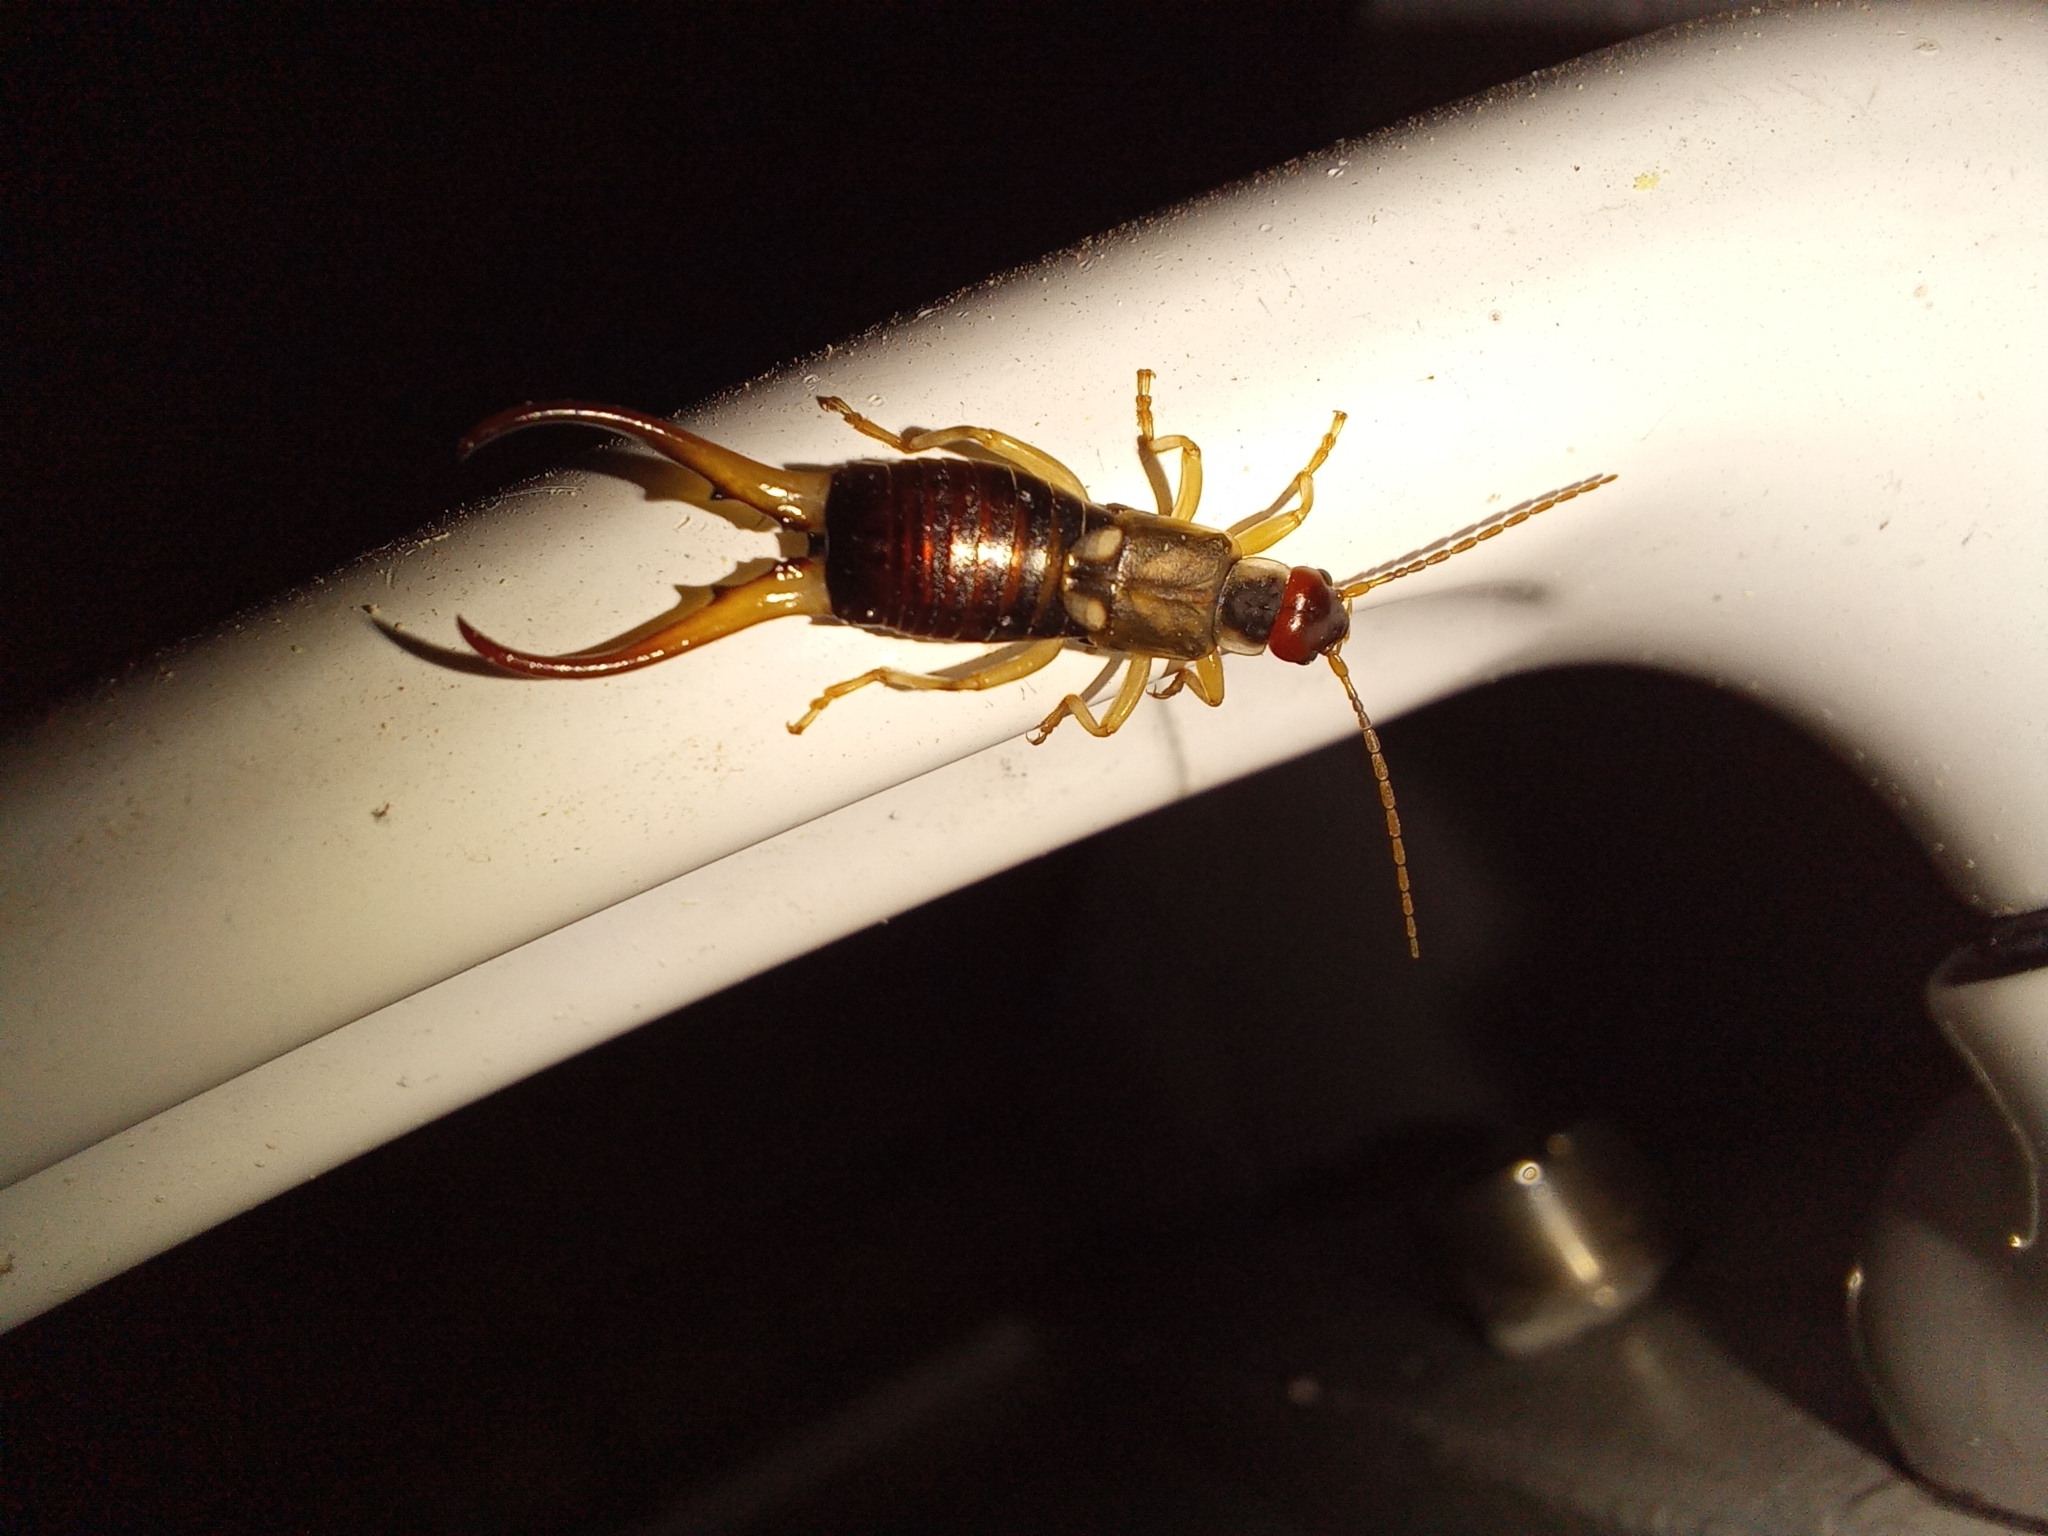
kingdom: Animalia
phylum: Arthropoda
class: Insecta
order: Dermaptera
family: Forficulidae
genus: Forficula
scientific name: Forficula
